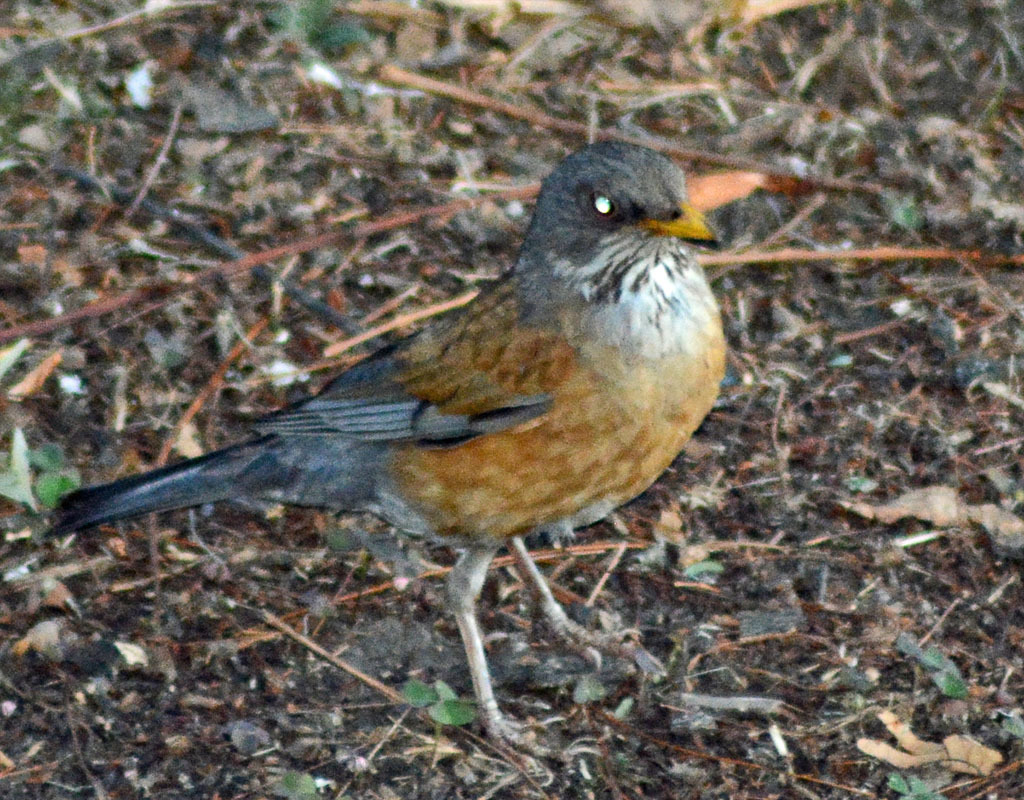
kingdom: Animalia
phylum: Chordata
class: Aves
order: Passeriformes
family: Turdidae
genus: Turdus
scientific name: Turdus rufopalliatus
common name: Rufous-backed robin
